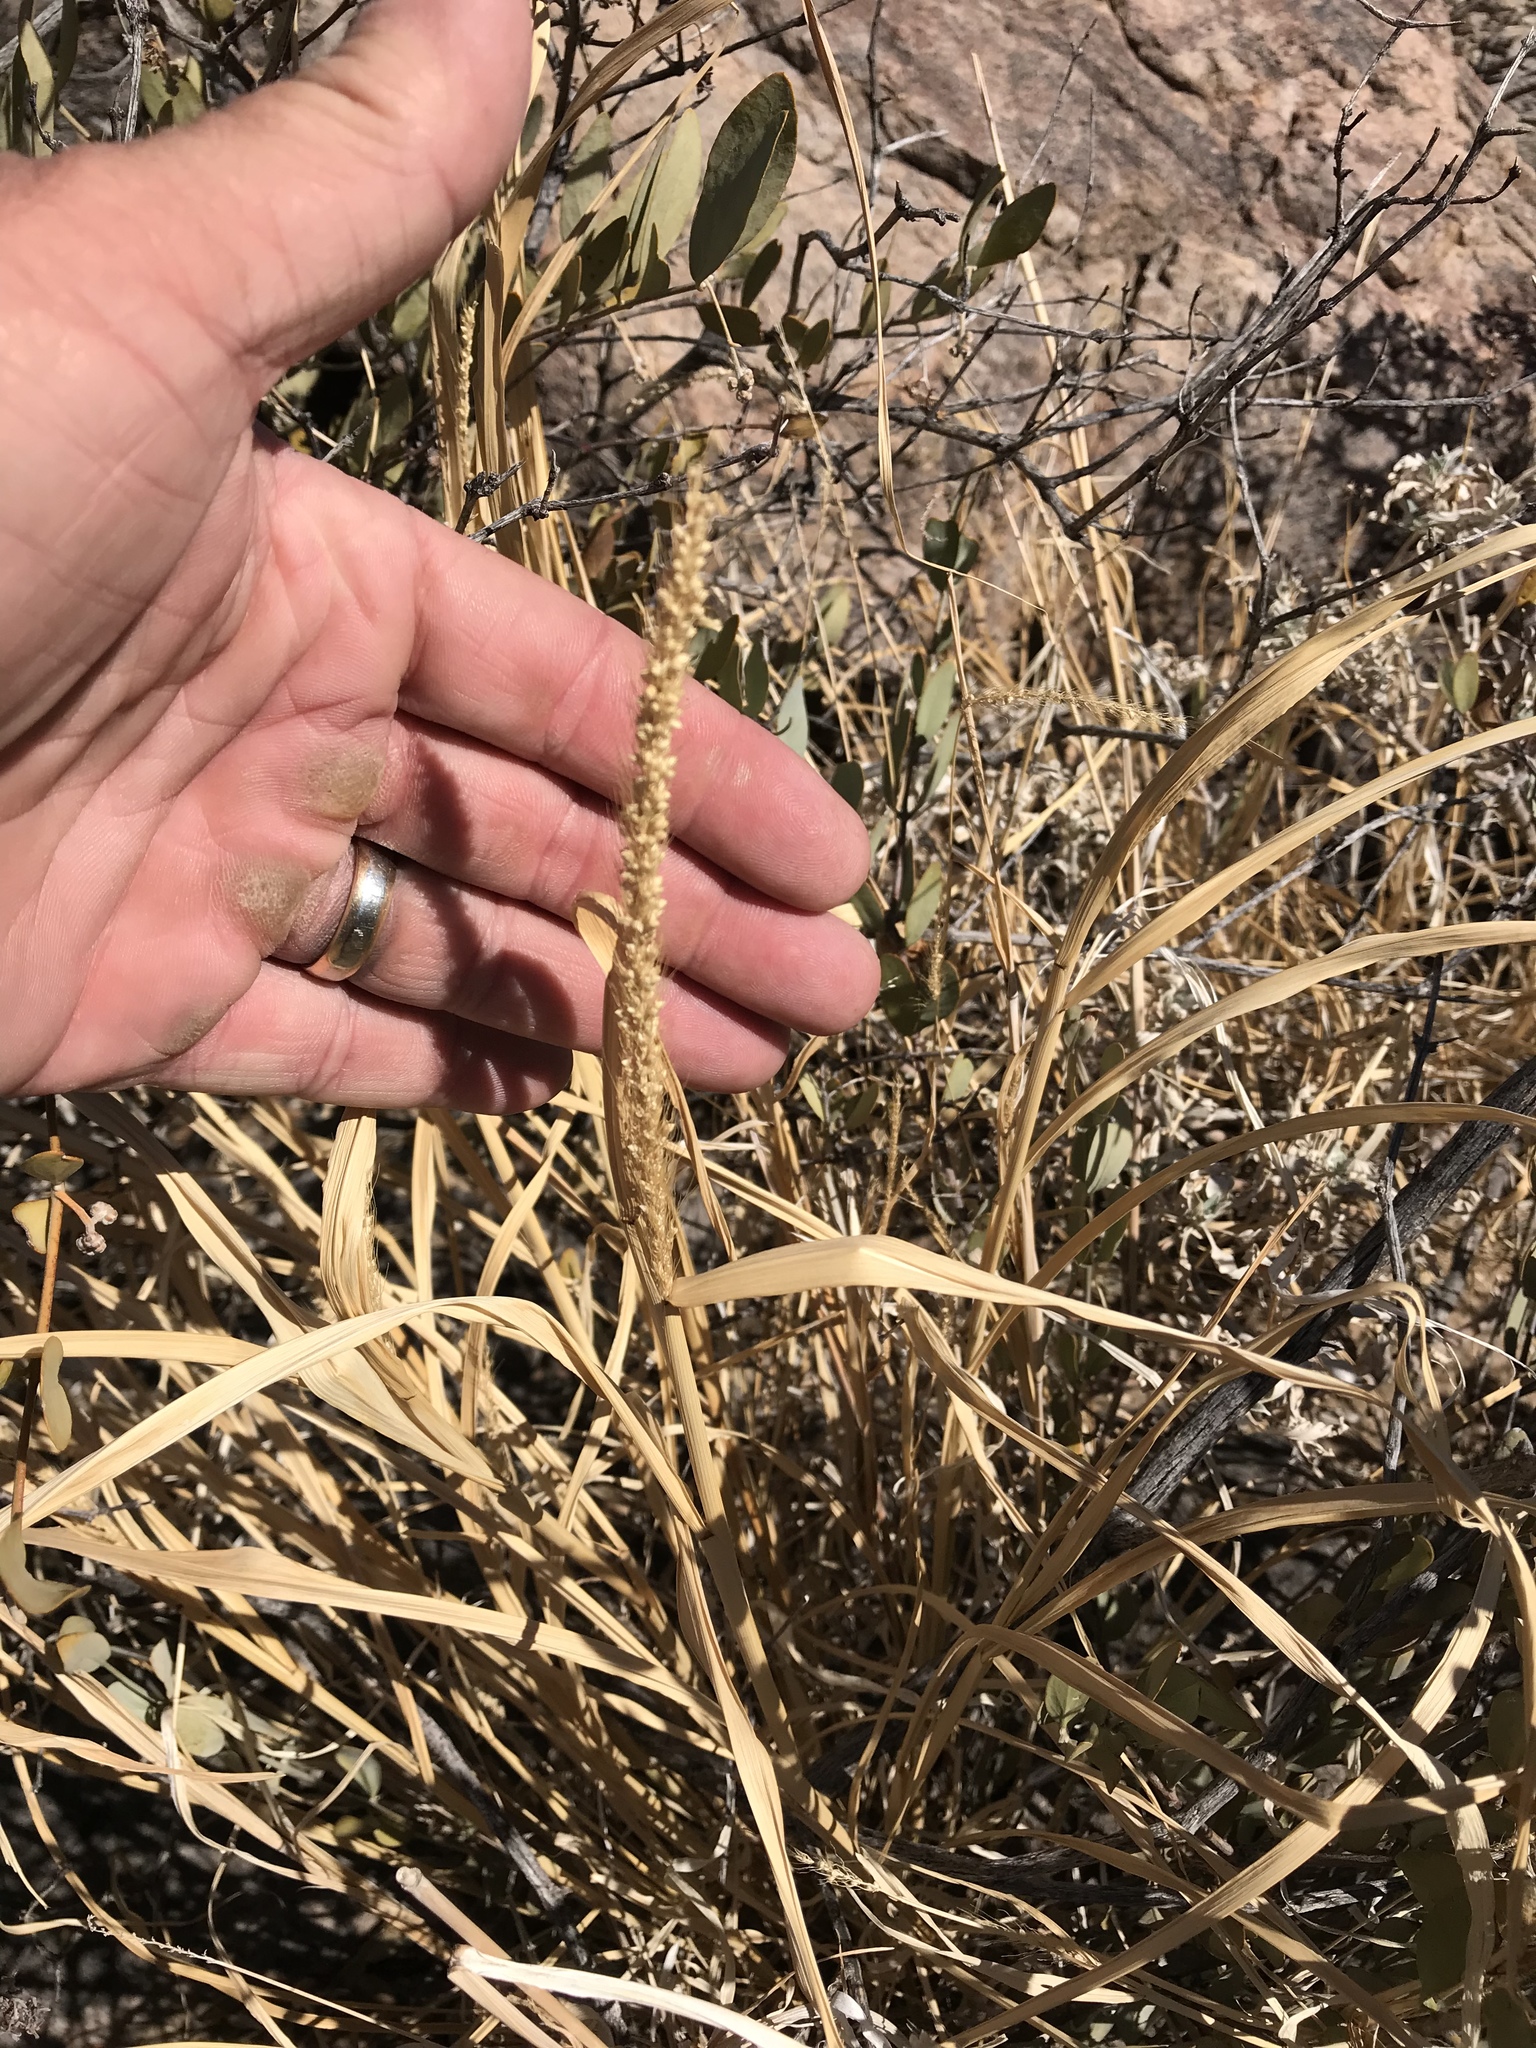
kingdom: Plantae
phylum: Tracheophyta
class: Liliopsida
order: Poales
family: Poaceae
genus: Setaria
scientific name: Setaria leucopila
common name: Plains bristle grass
